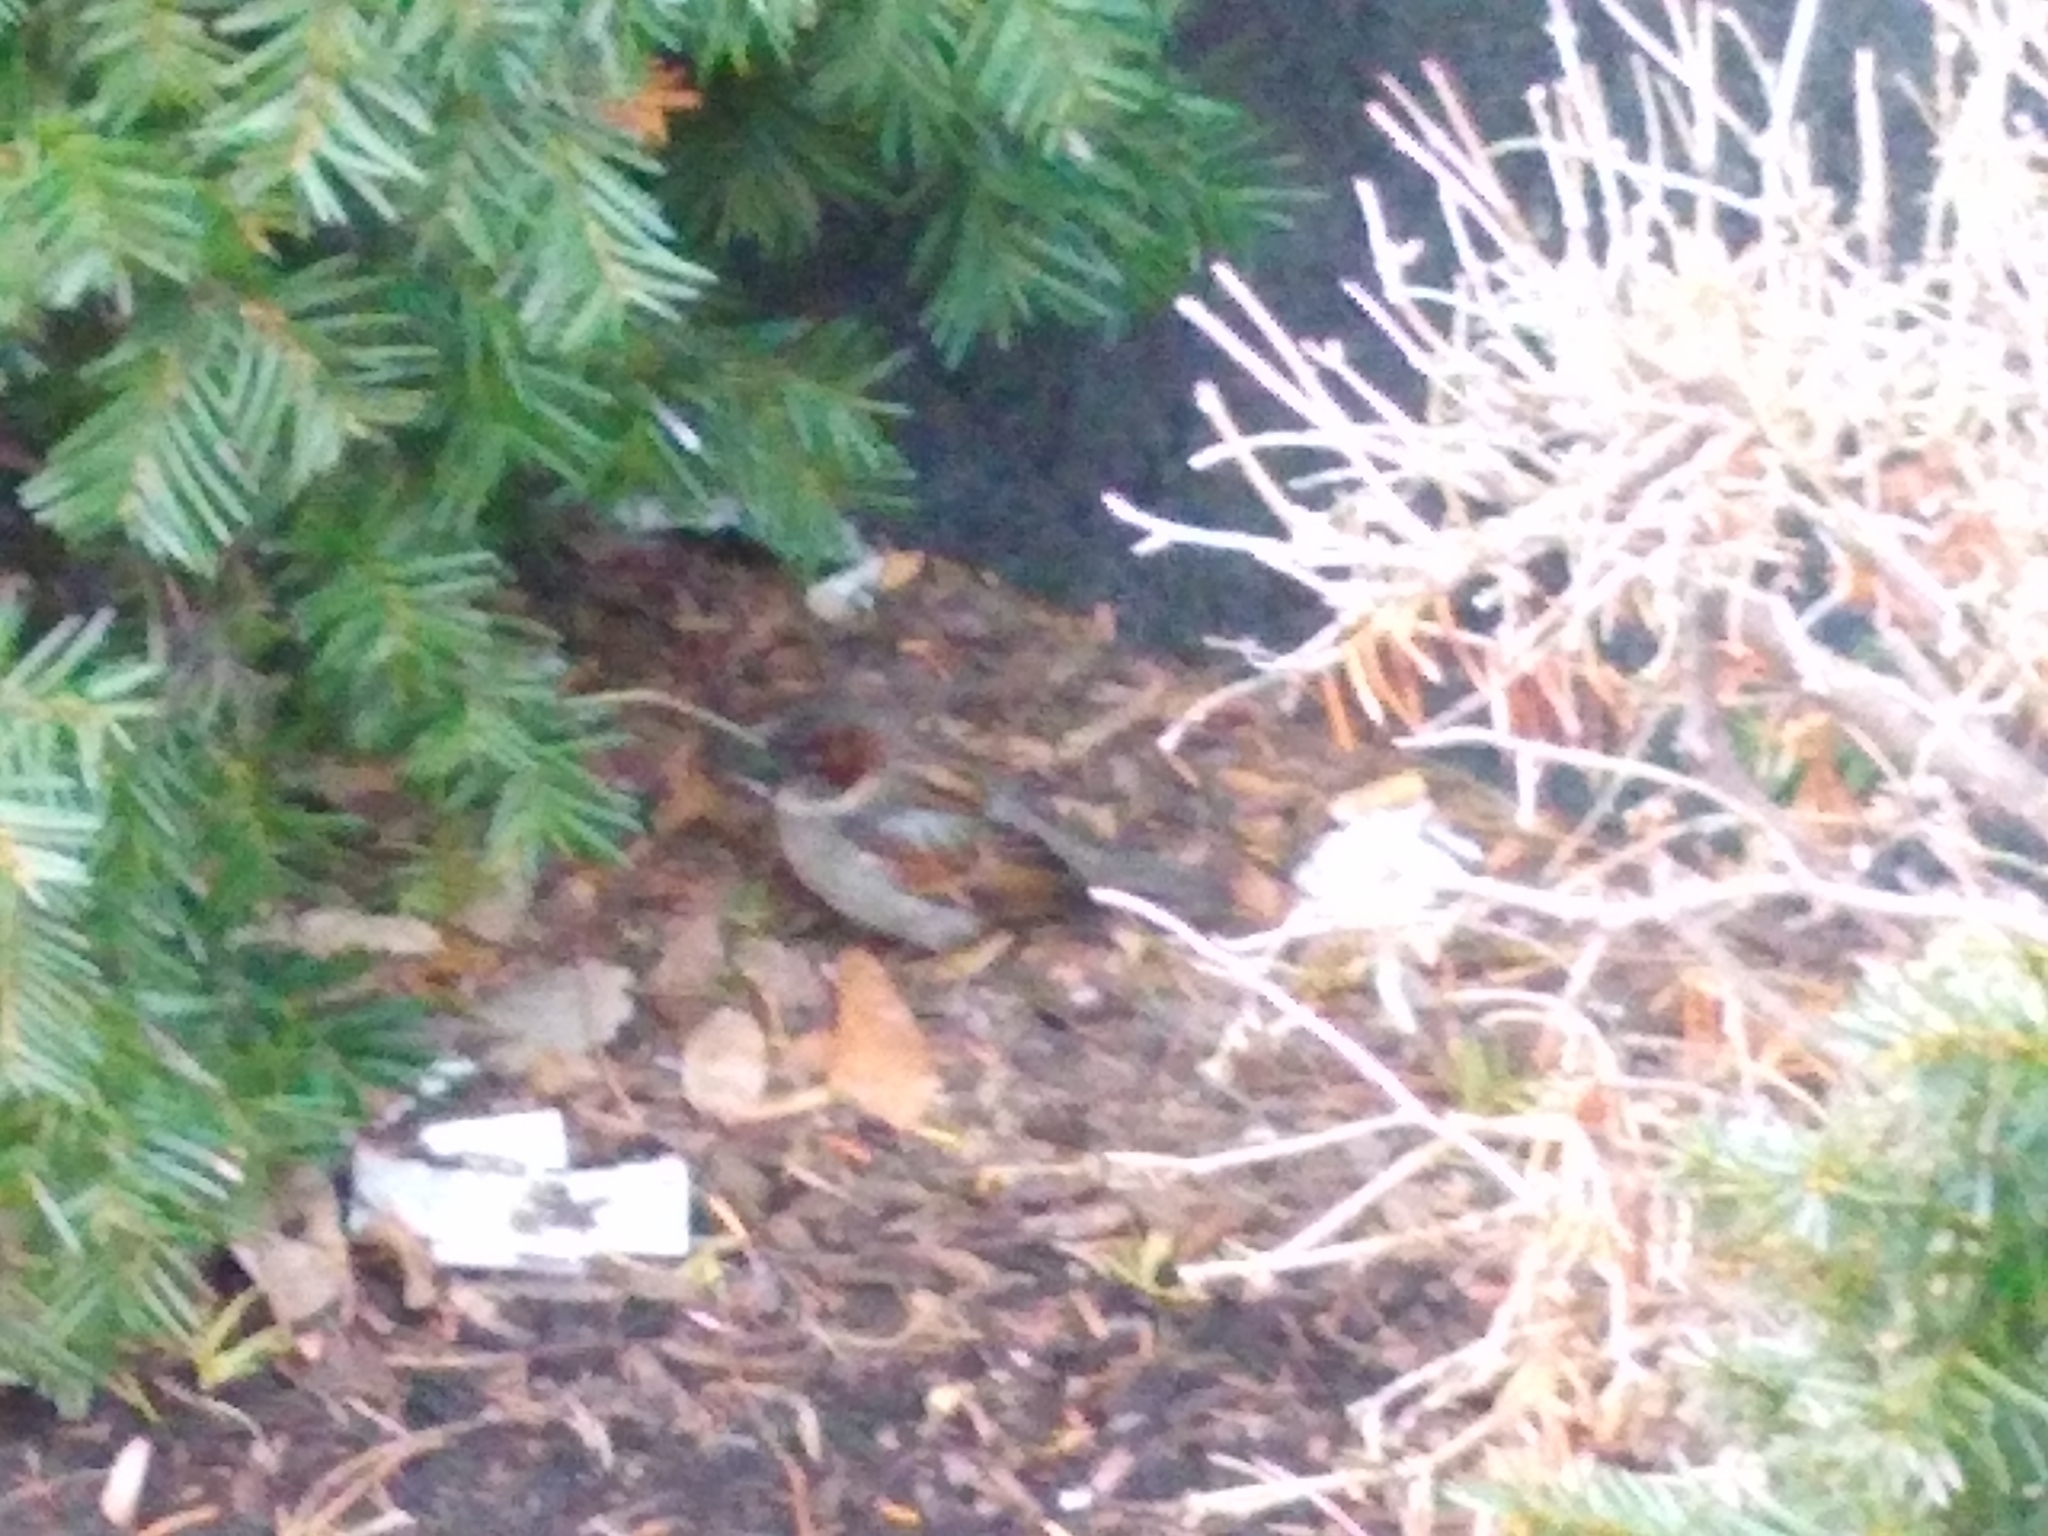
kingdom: Animalia
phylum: Chordata
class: Aves
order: Passeriformes
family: Passeridae
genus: Passer
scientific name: Passer domesticus
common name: House sparrow
